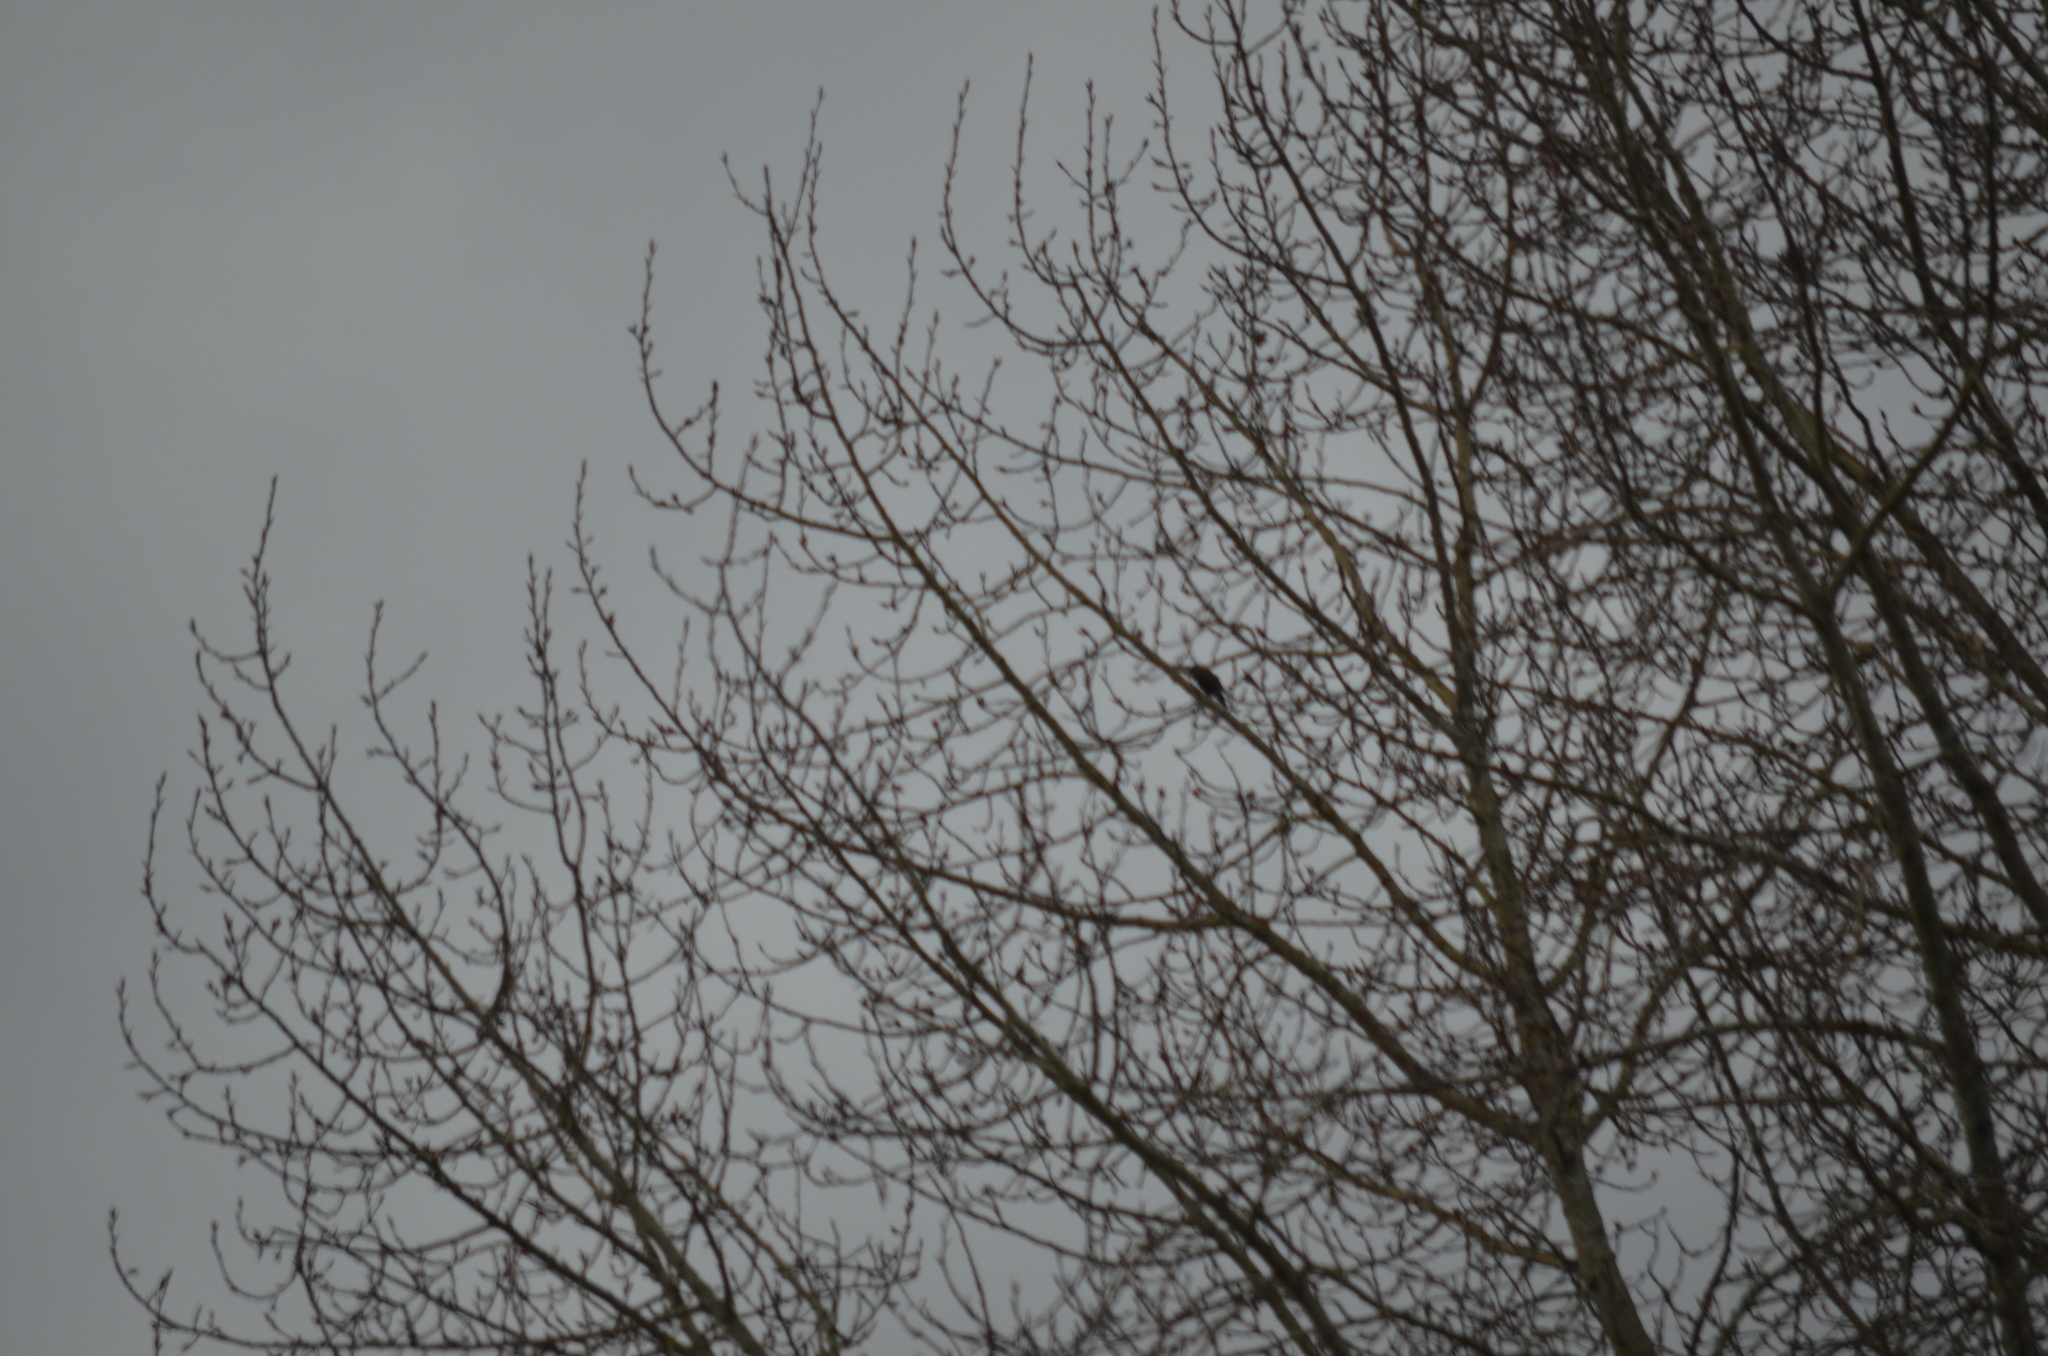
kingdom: Animalia
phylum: Chordata
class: Aves
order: Passeriformes
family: Sturnidae
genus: Sturnus
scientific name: Sturnus vulgaris
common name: Common starling
